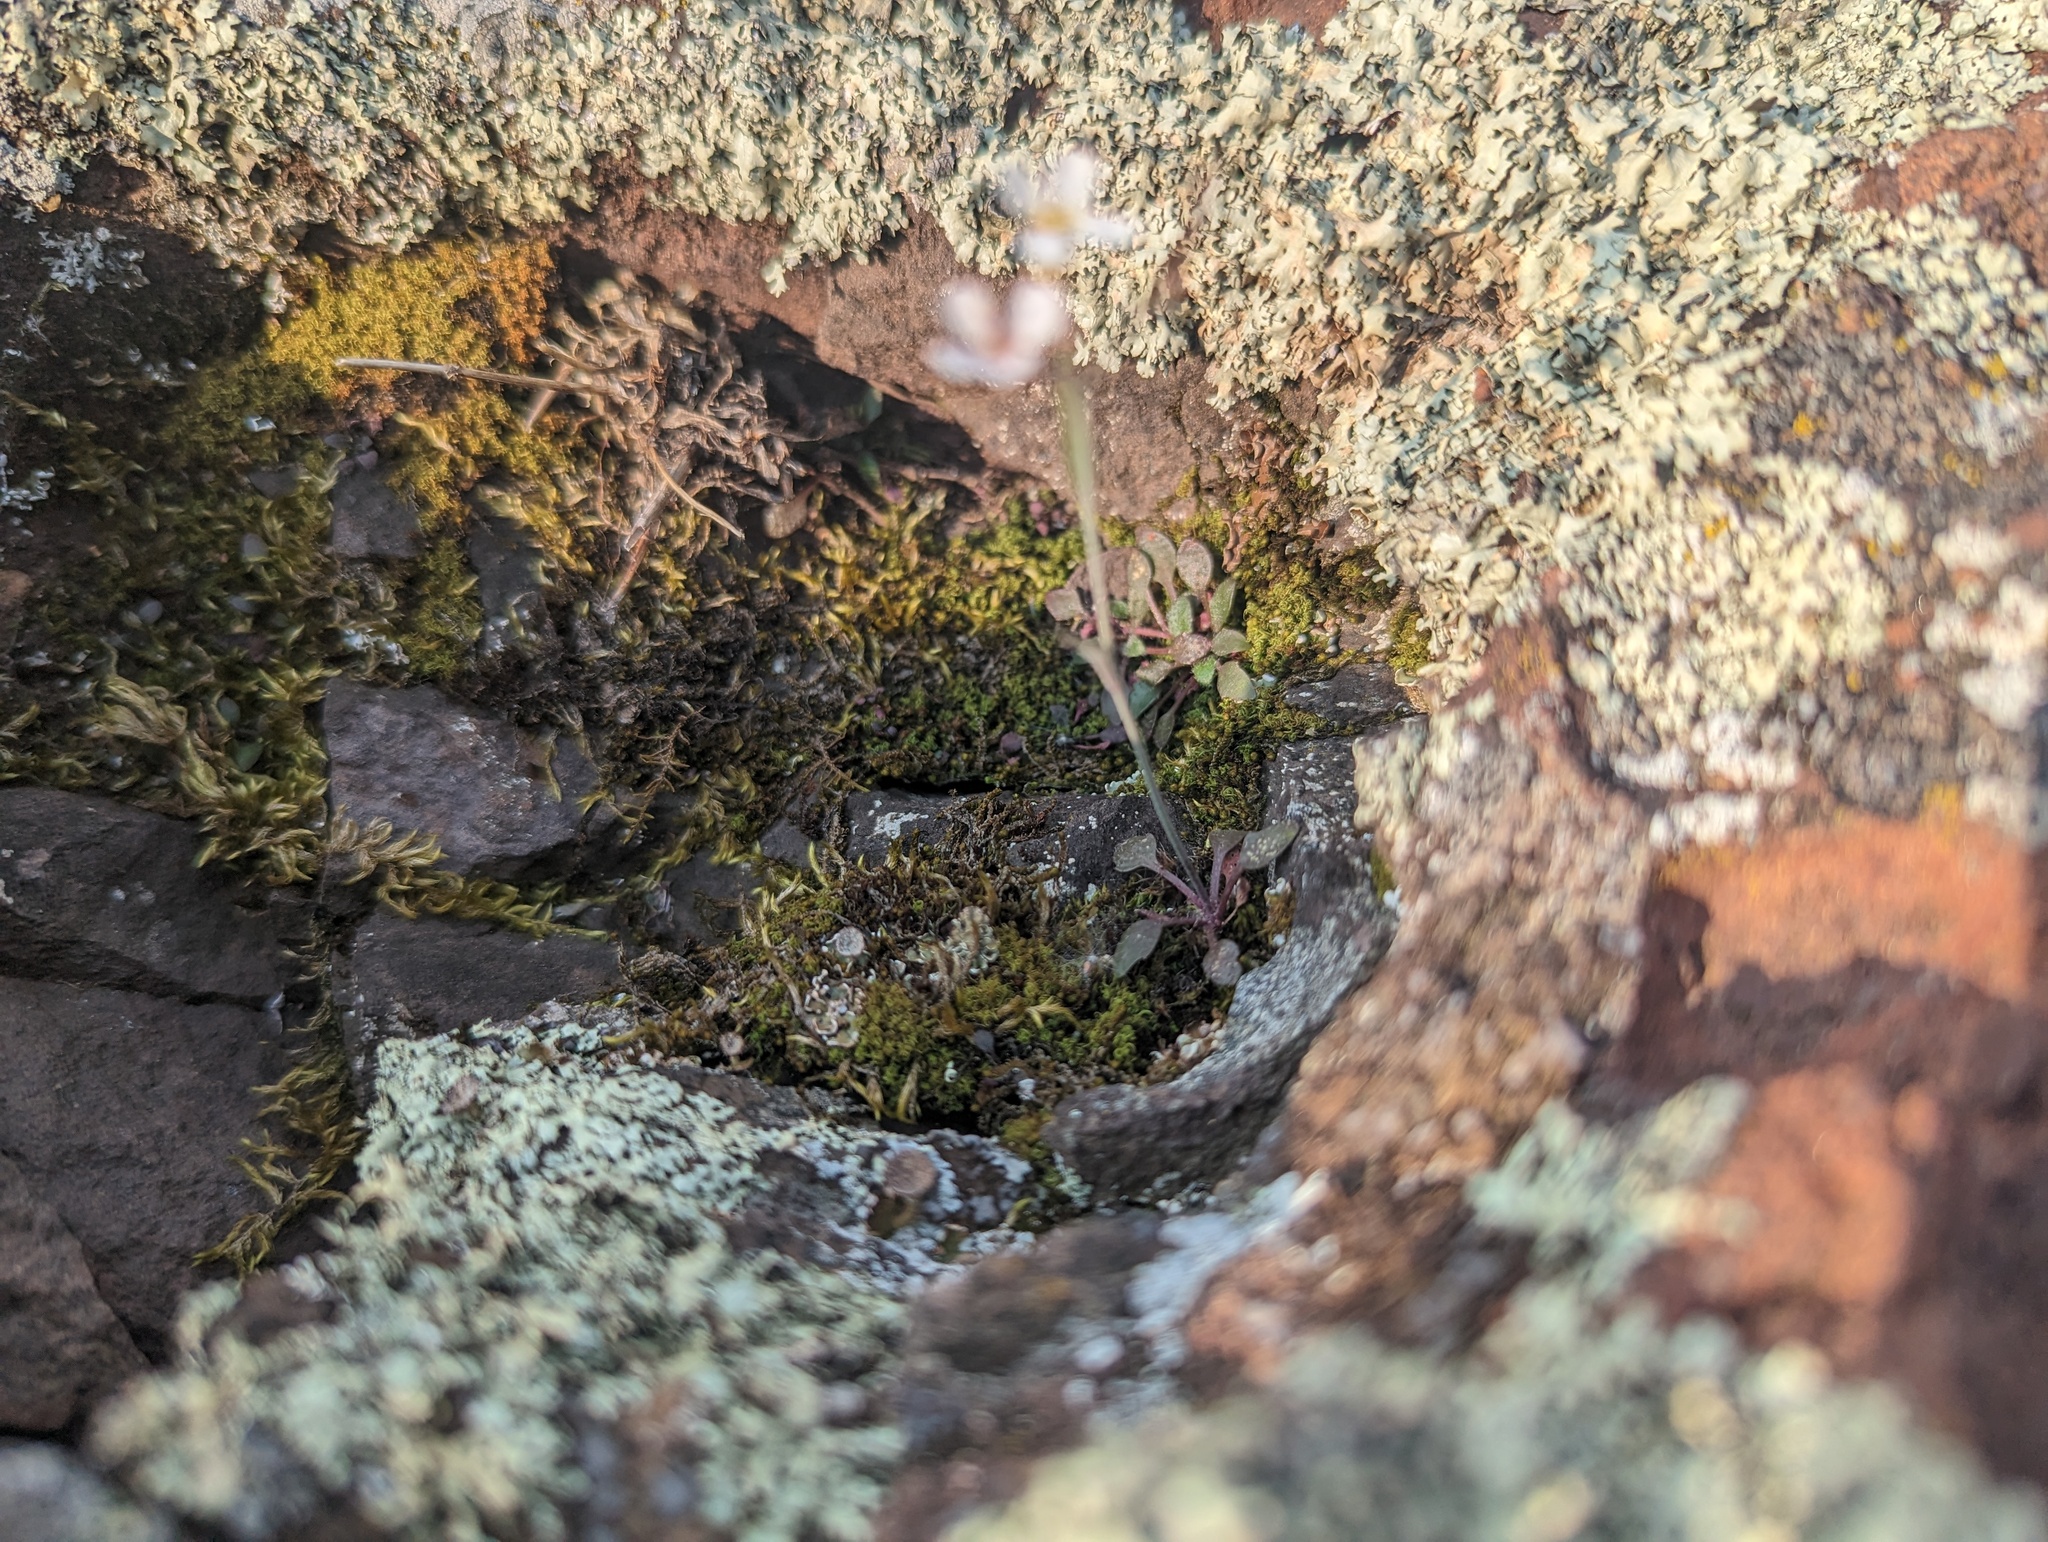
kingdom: Plantae
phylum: Tracheophyta
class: Magnoliopsida
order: Brassicales
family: Brassicaceae
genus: Arabidopsis
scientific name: Arabidopsis lyrata
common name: Lyrate rockcress
